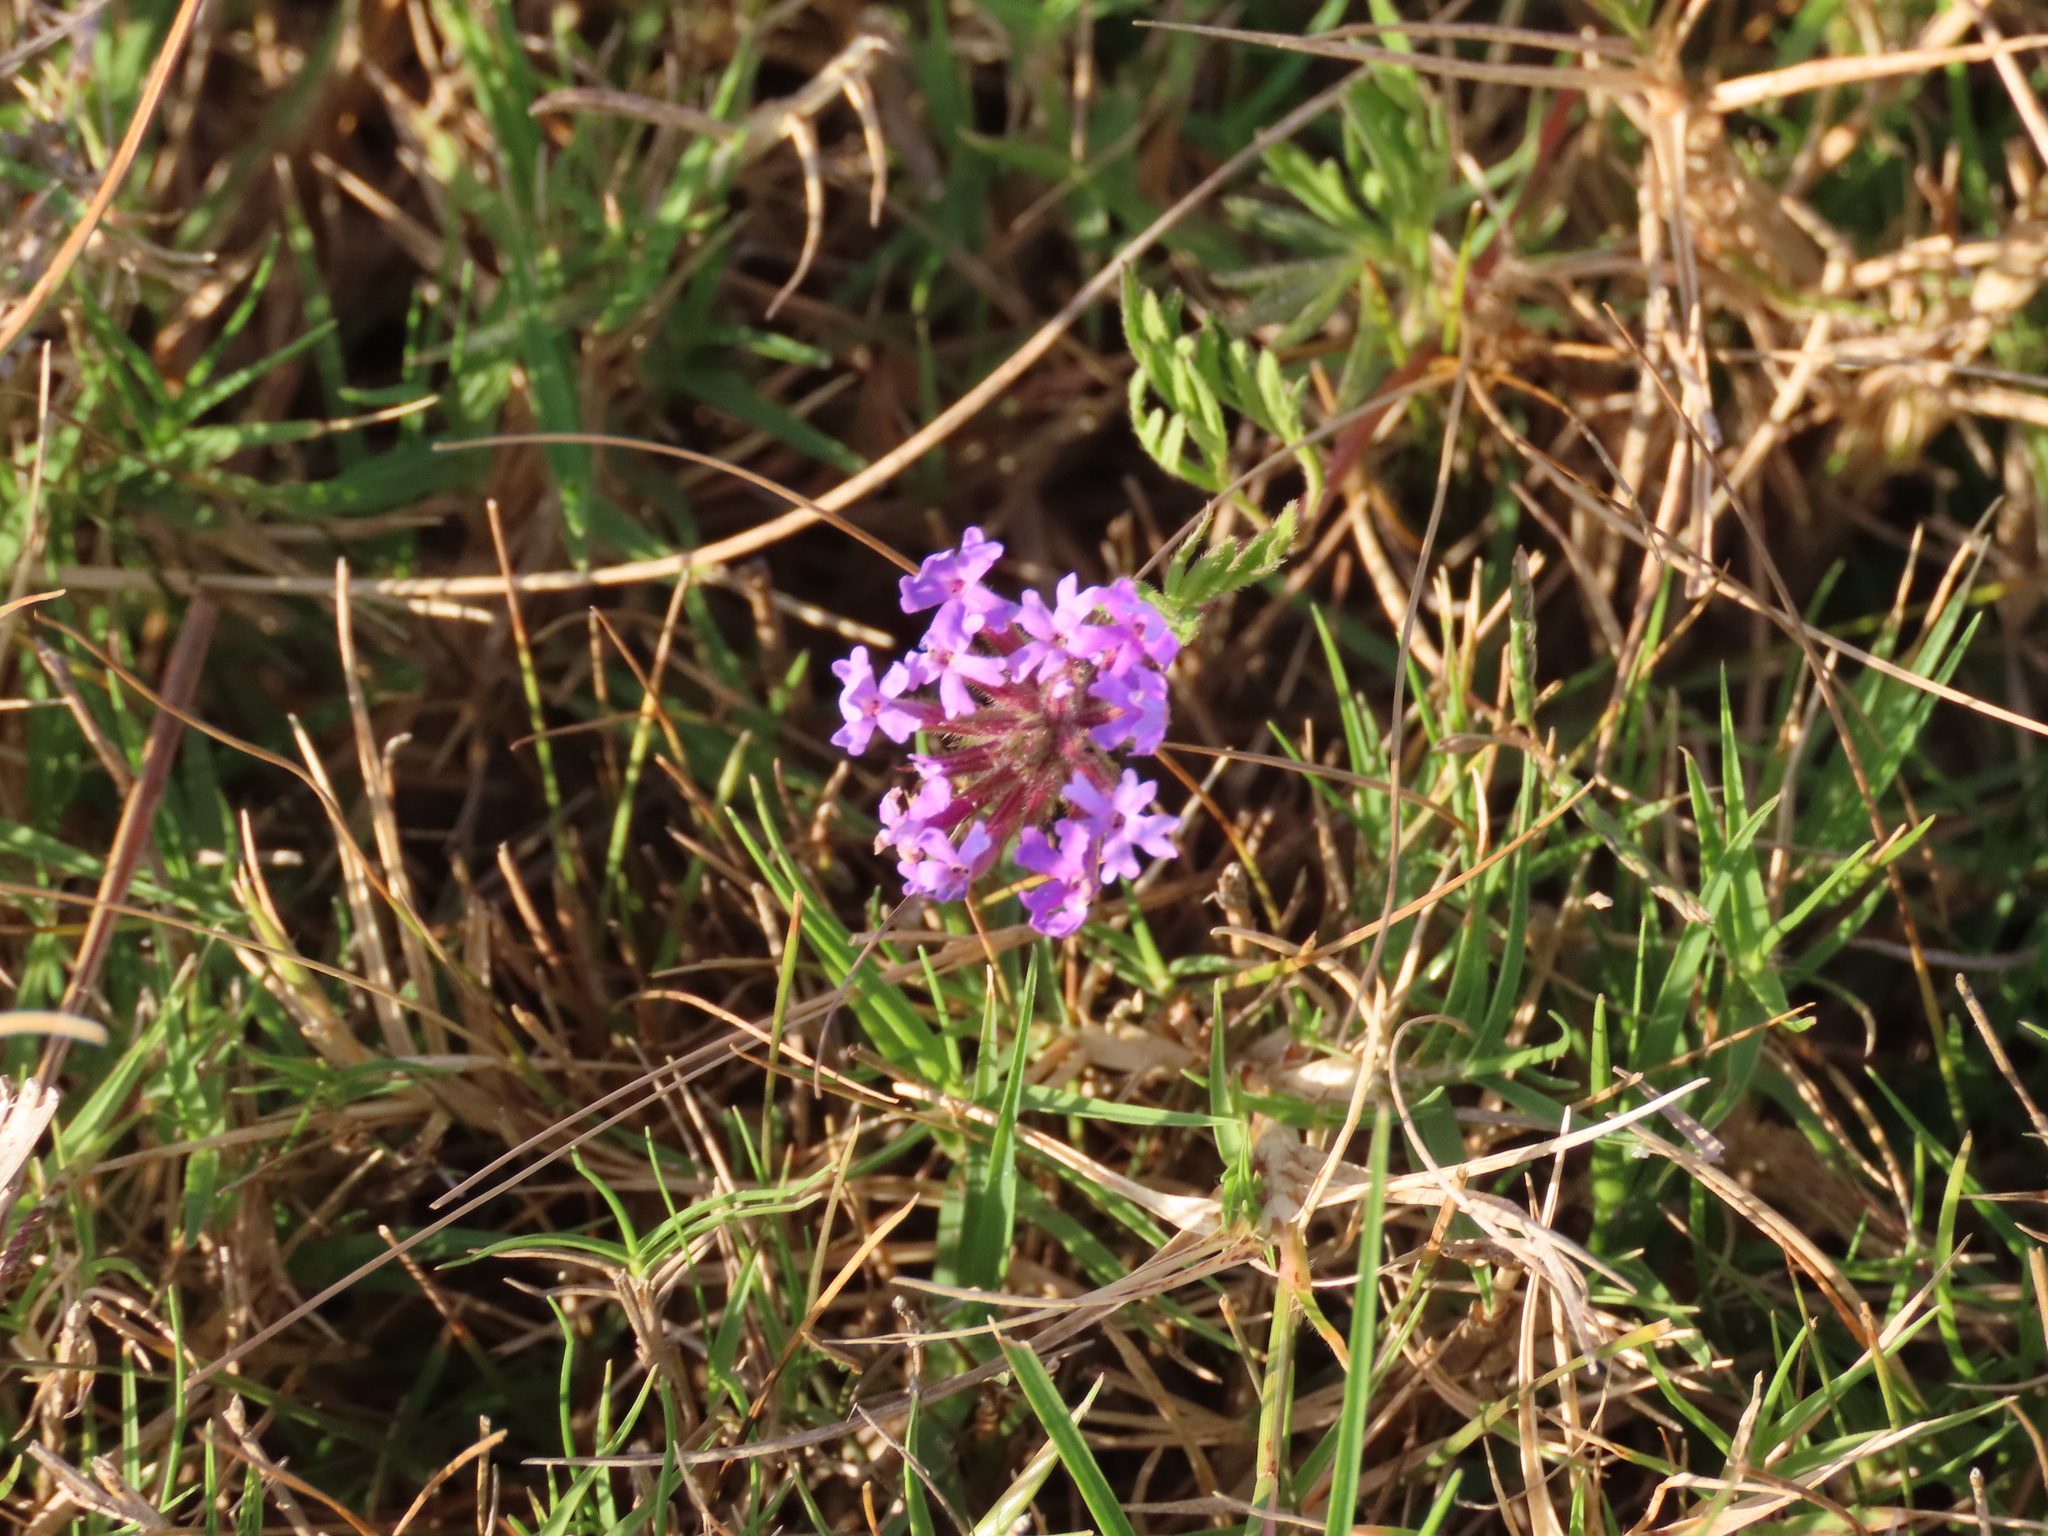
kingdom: Plantae
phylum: Tracheophyta
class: Magnoliopsida
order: Lamiales
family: Verbenaceae
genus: Verbena
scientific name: Verbena selloi
